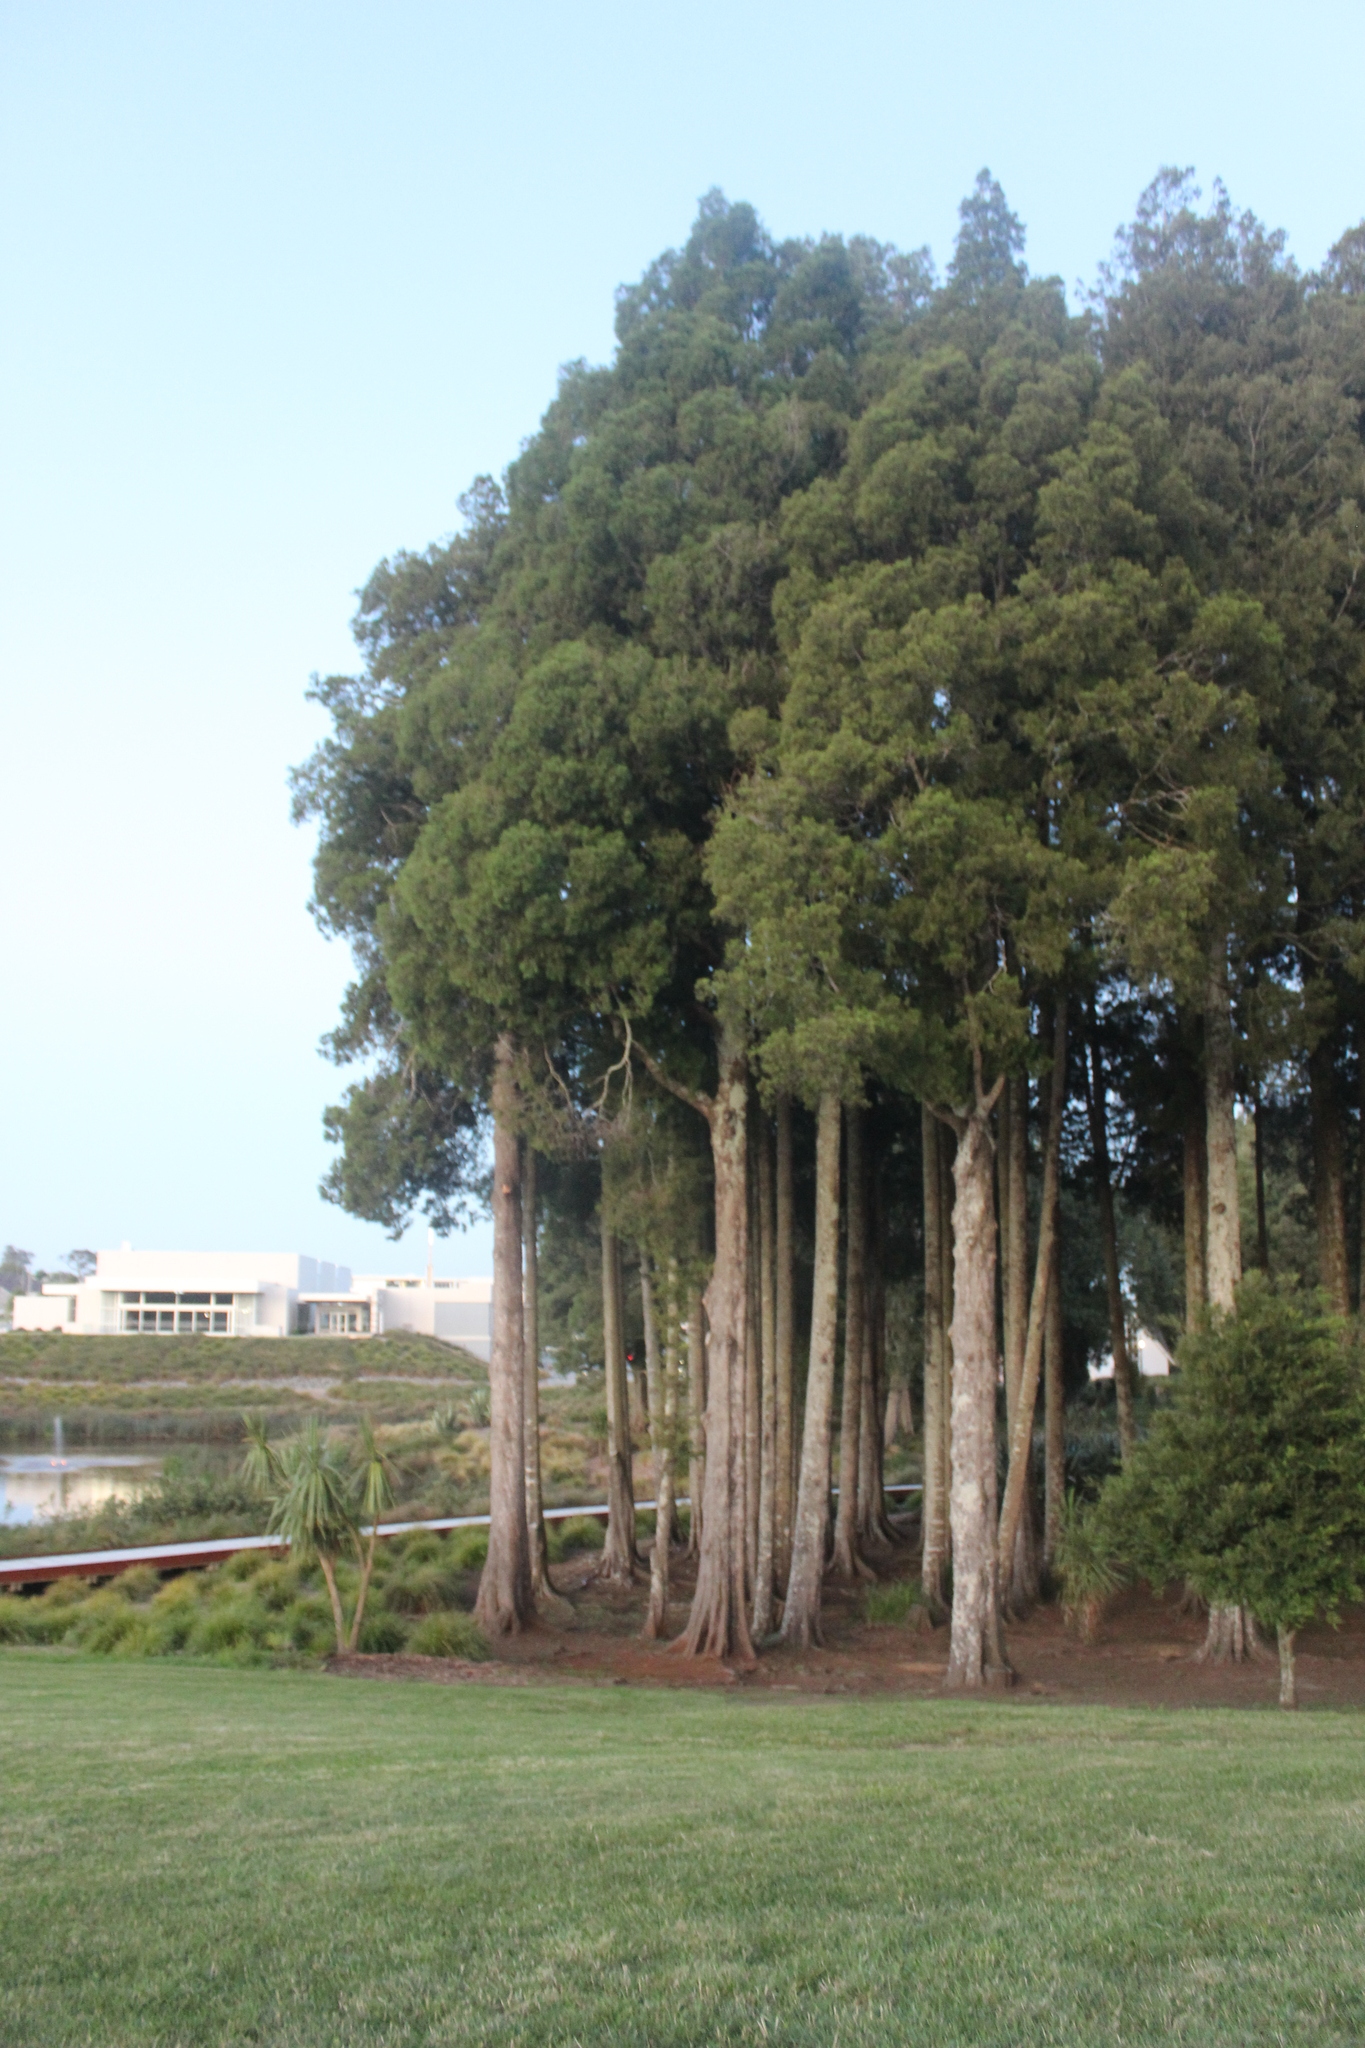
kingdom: Plantae
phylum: Tracheophyta
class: Pinopsida
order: Pinales
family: Podocarpaceae
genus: Dacrycarpus
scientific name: Dacrycarpus dacrydioides
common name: White pine
